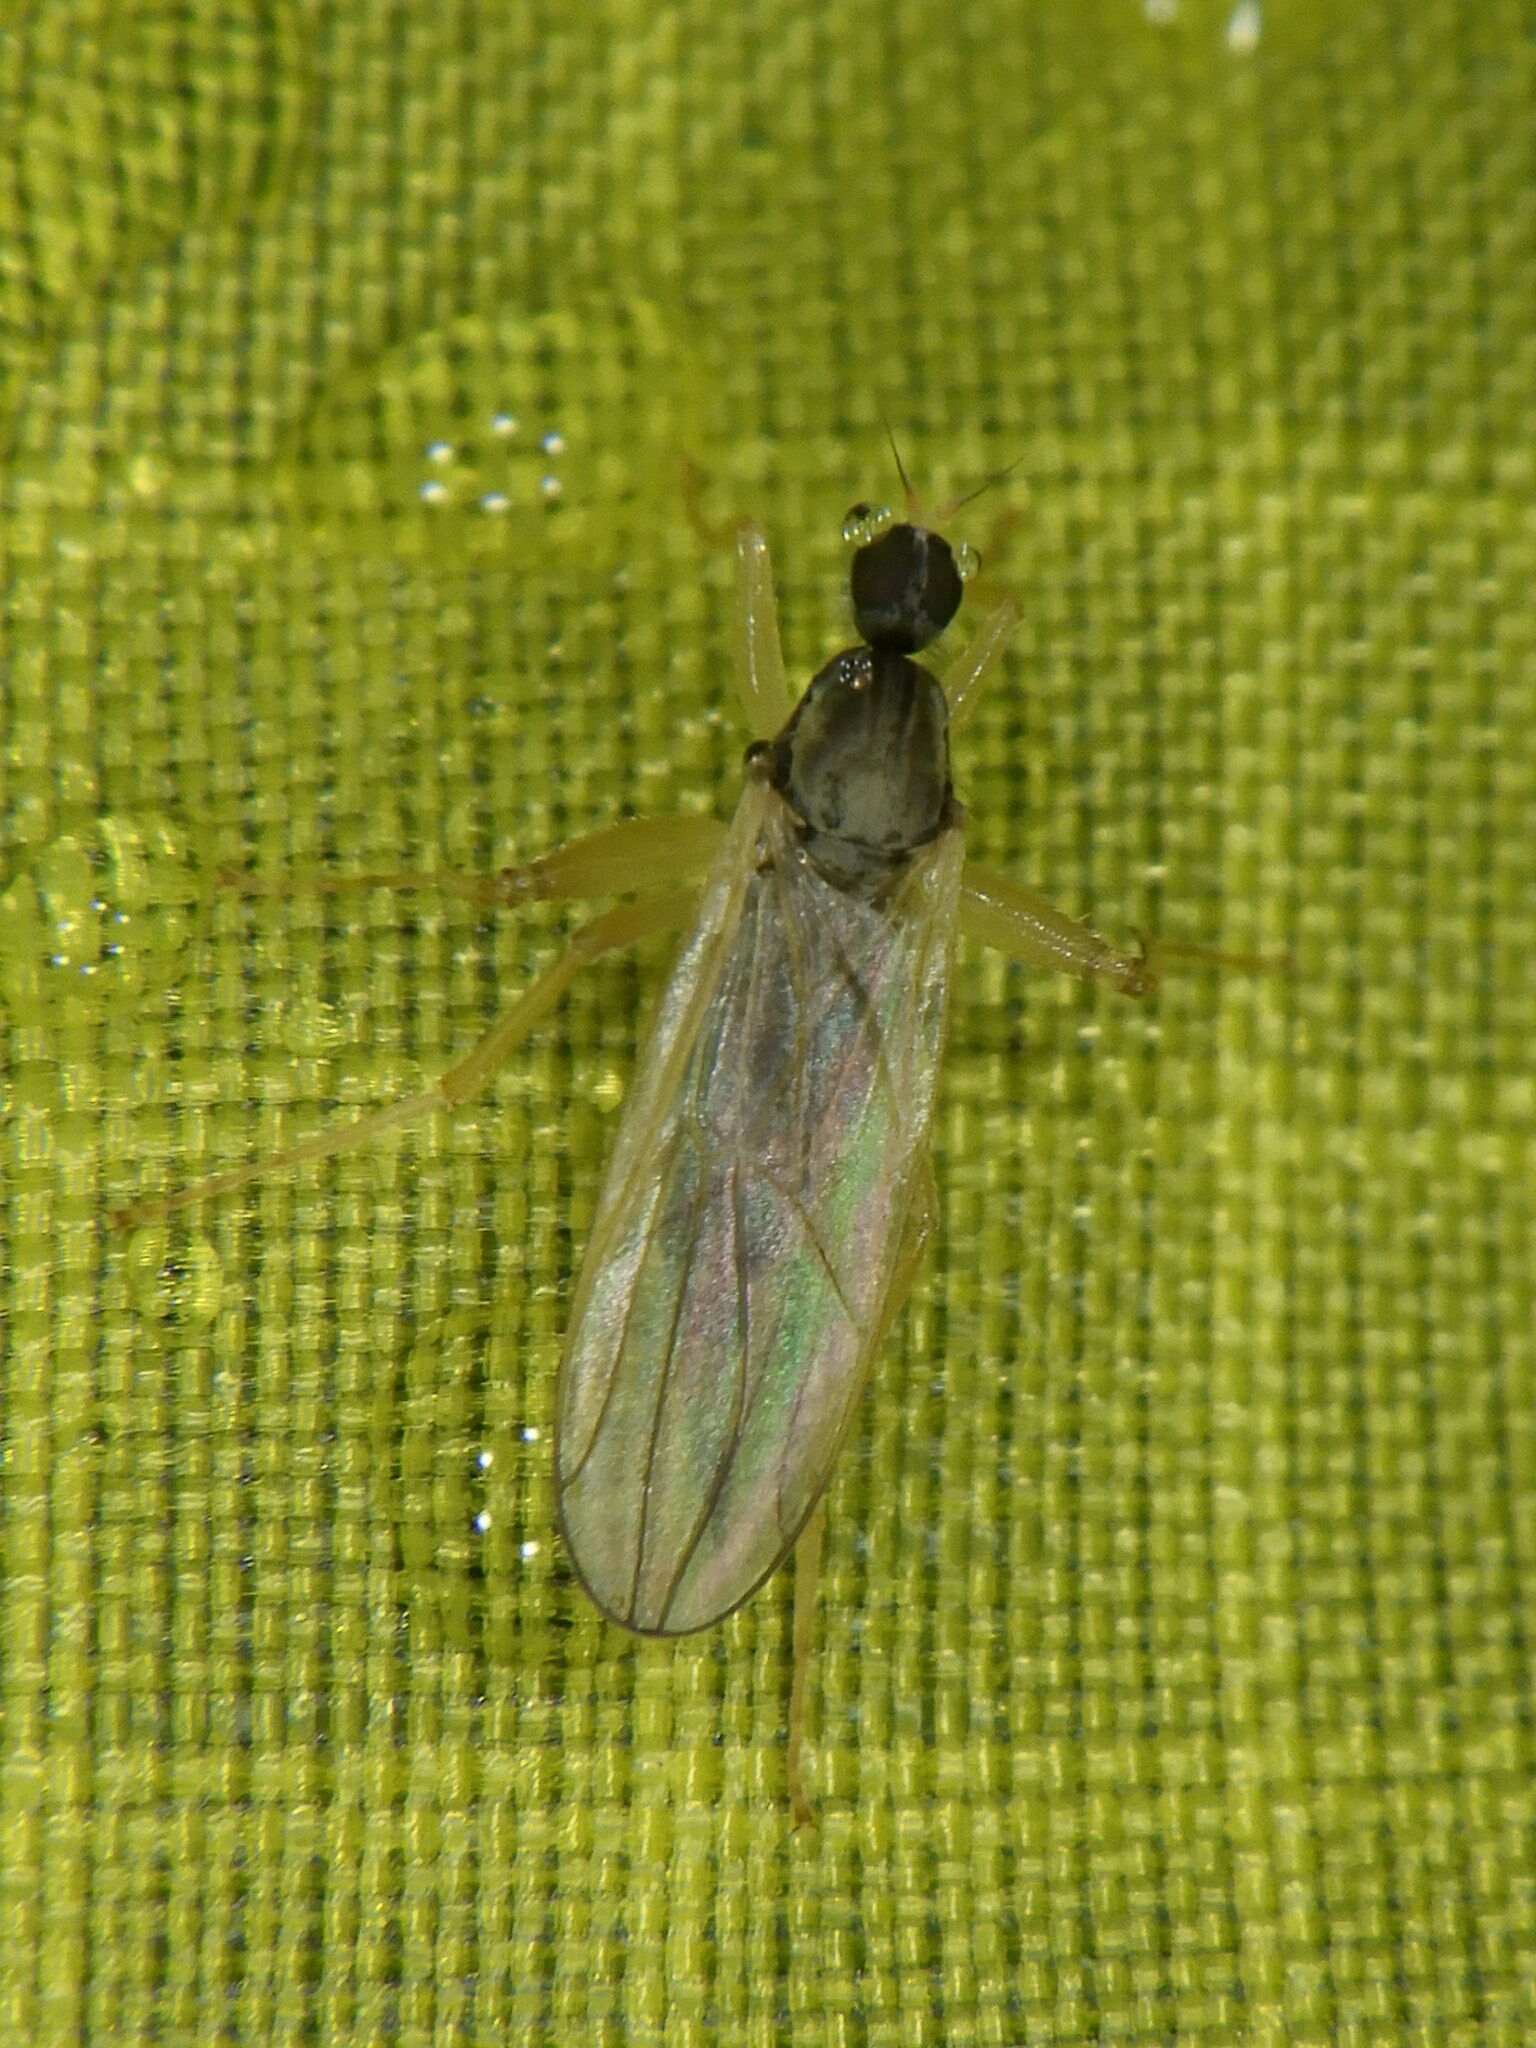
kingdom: Animalia
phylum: Arthropoda
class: Insecta
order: Diptera
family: Hybotidae
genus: Platypalpus
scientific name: Platypalpus
